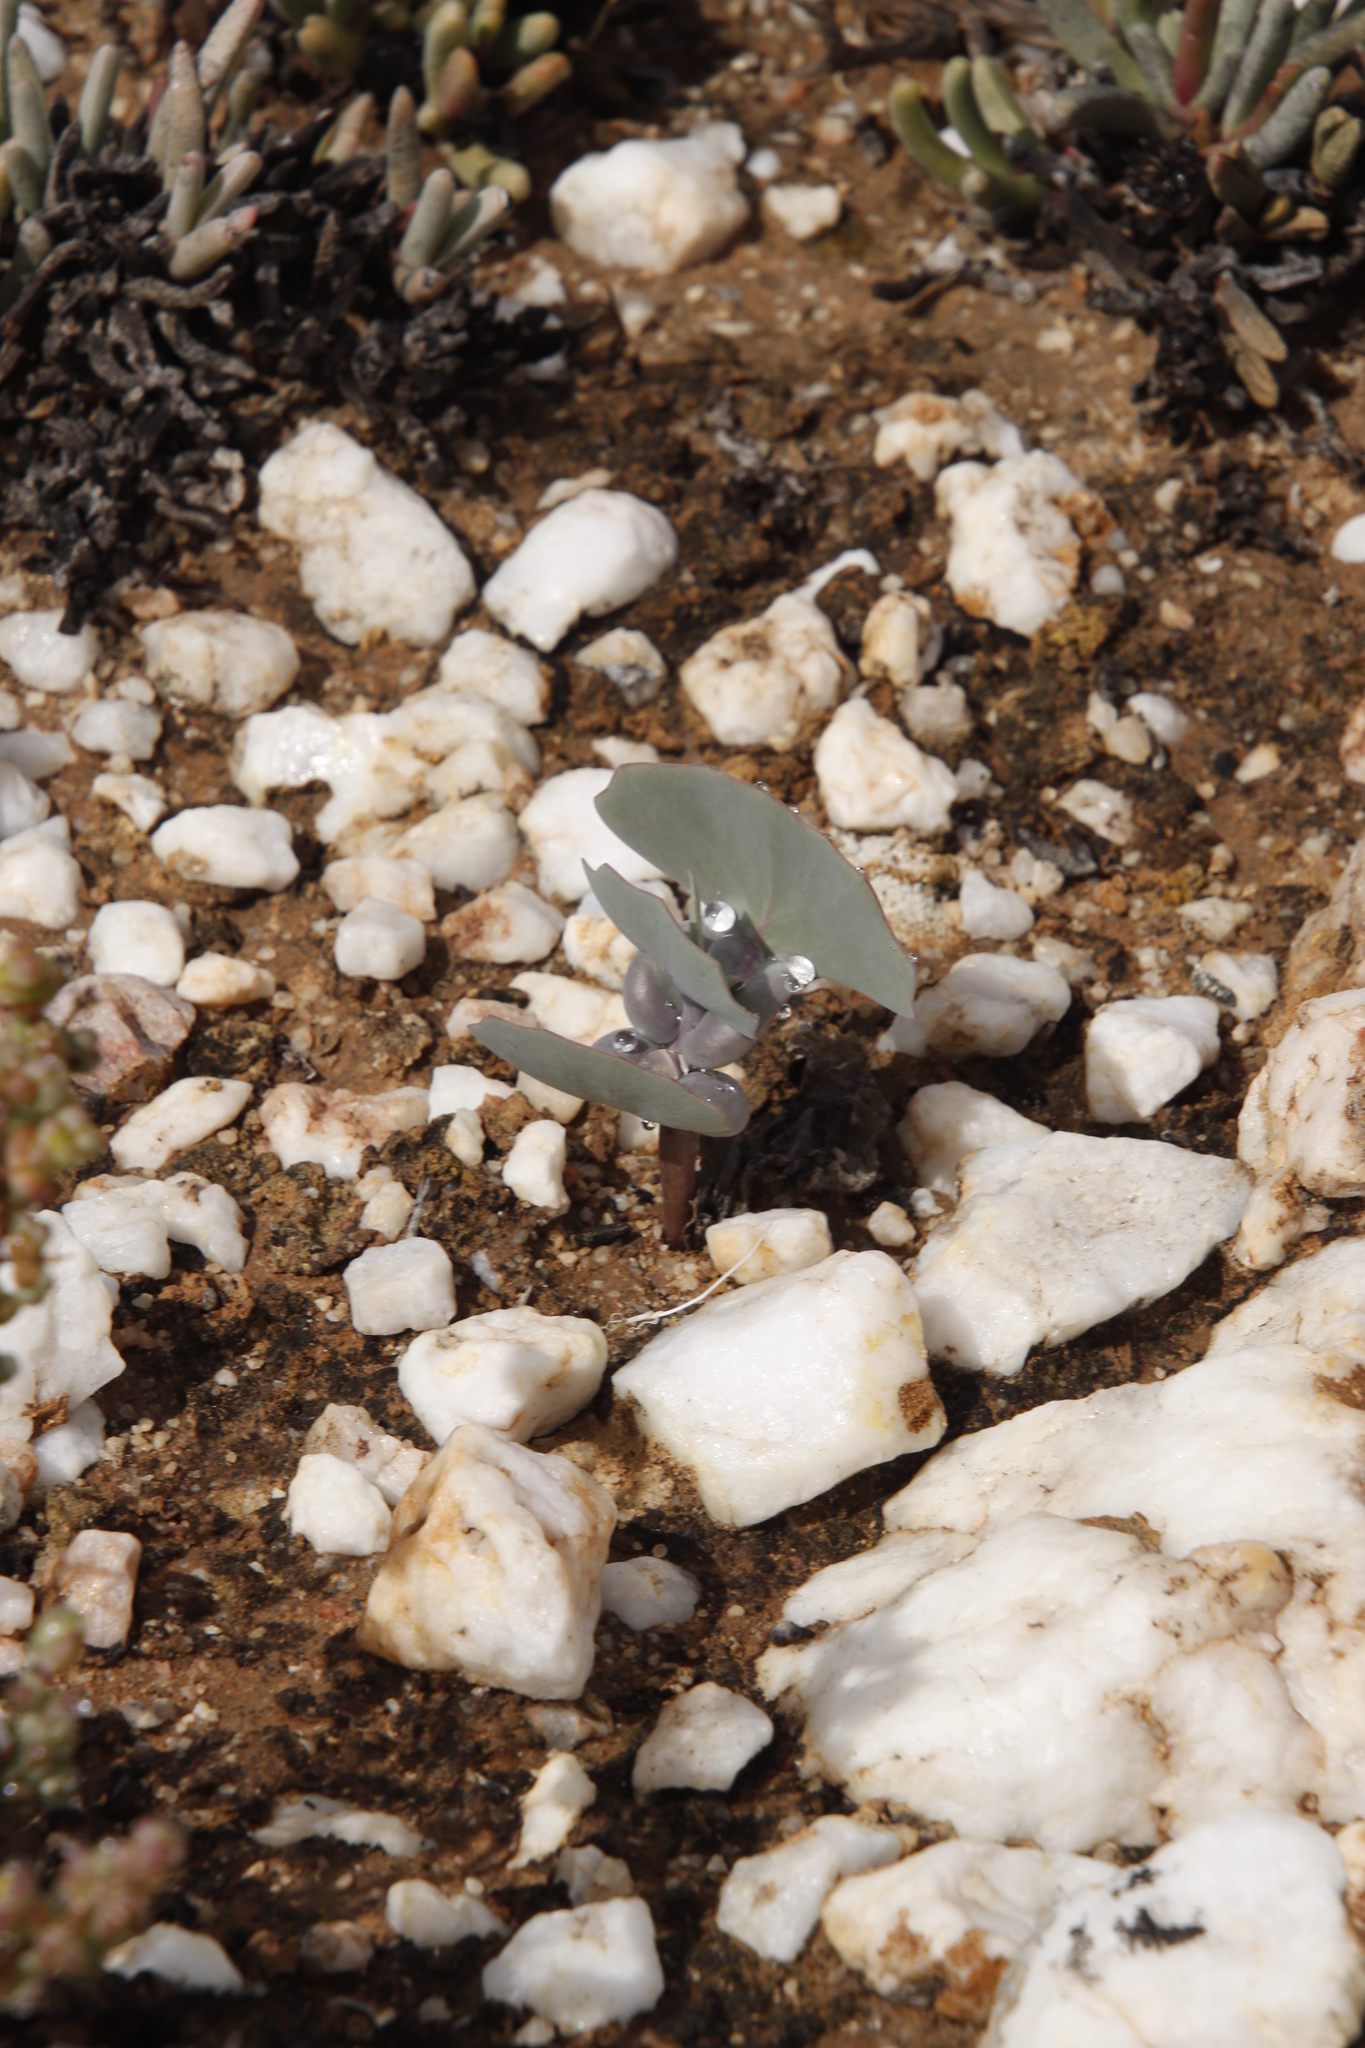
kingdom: Plantae
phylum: Tracheophyta
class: Magnoliopsida
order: Asterales
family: Asteraceae
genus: Othonna
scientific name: Othonna cuneata
